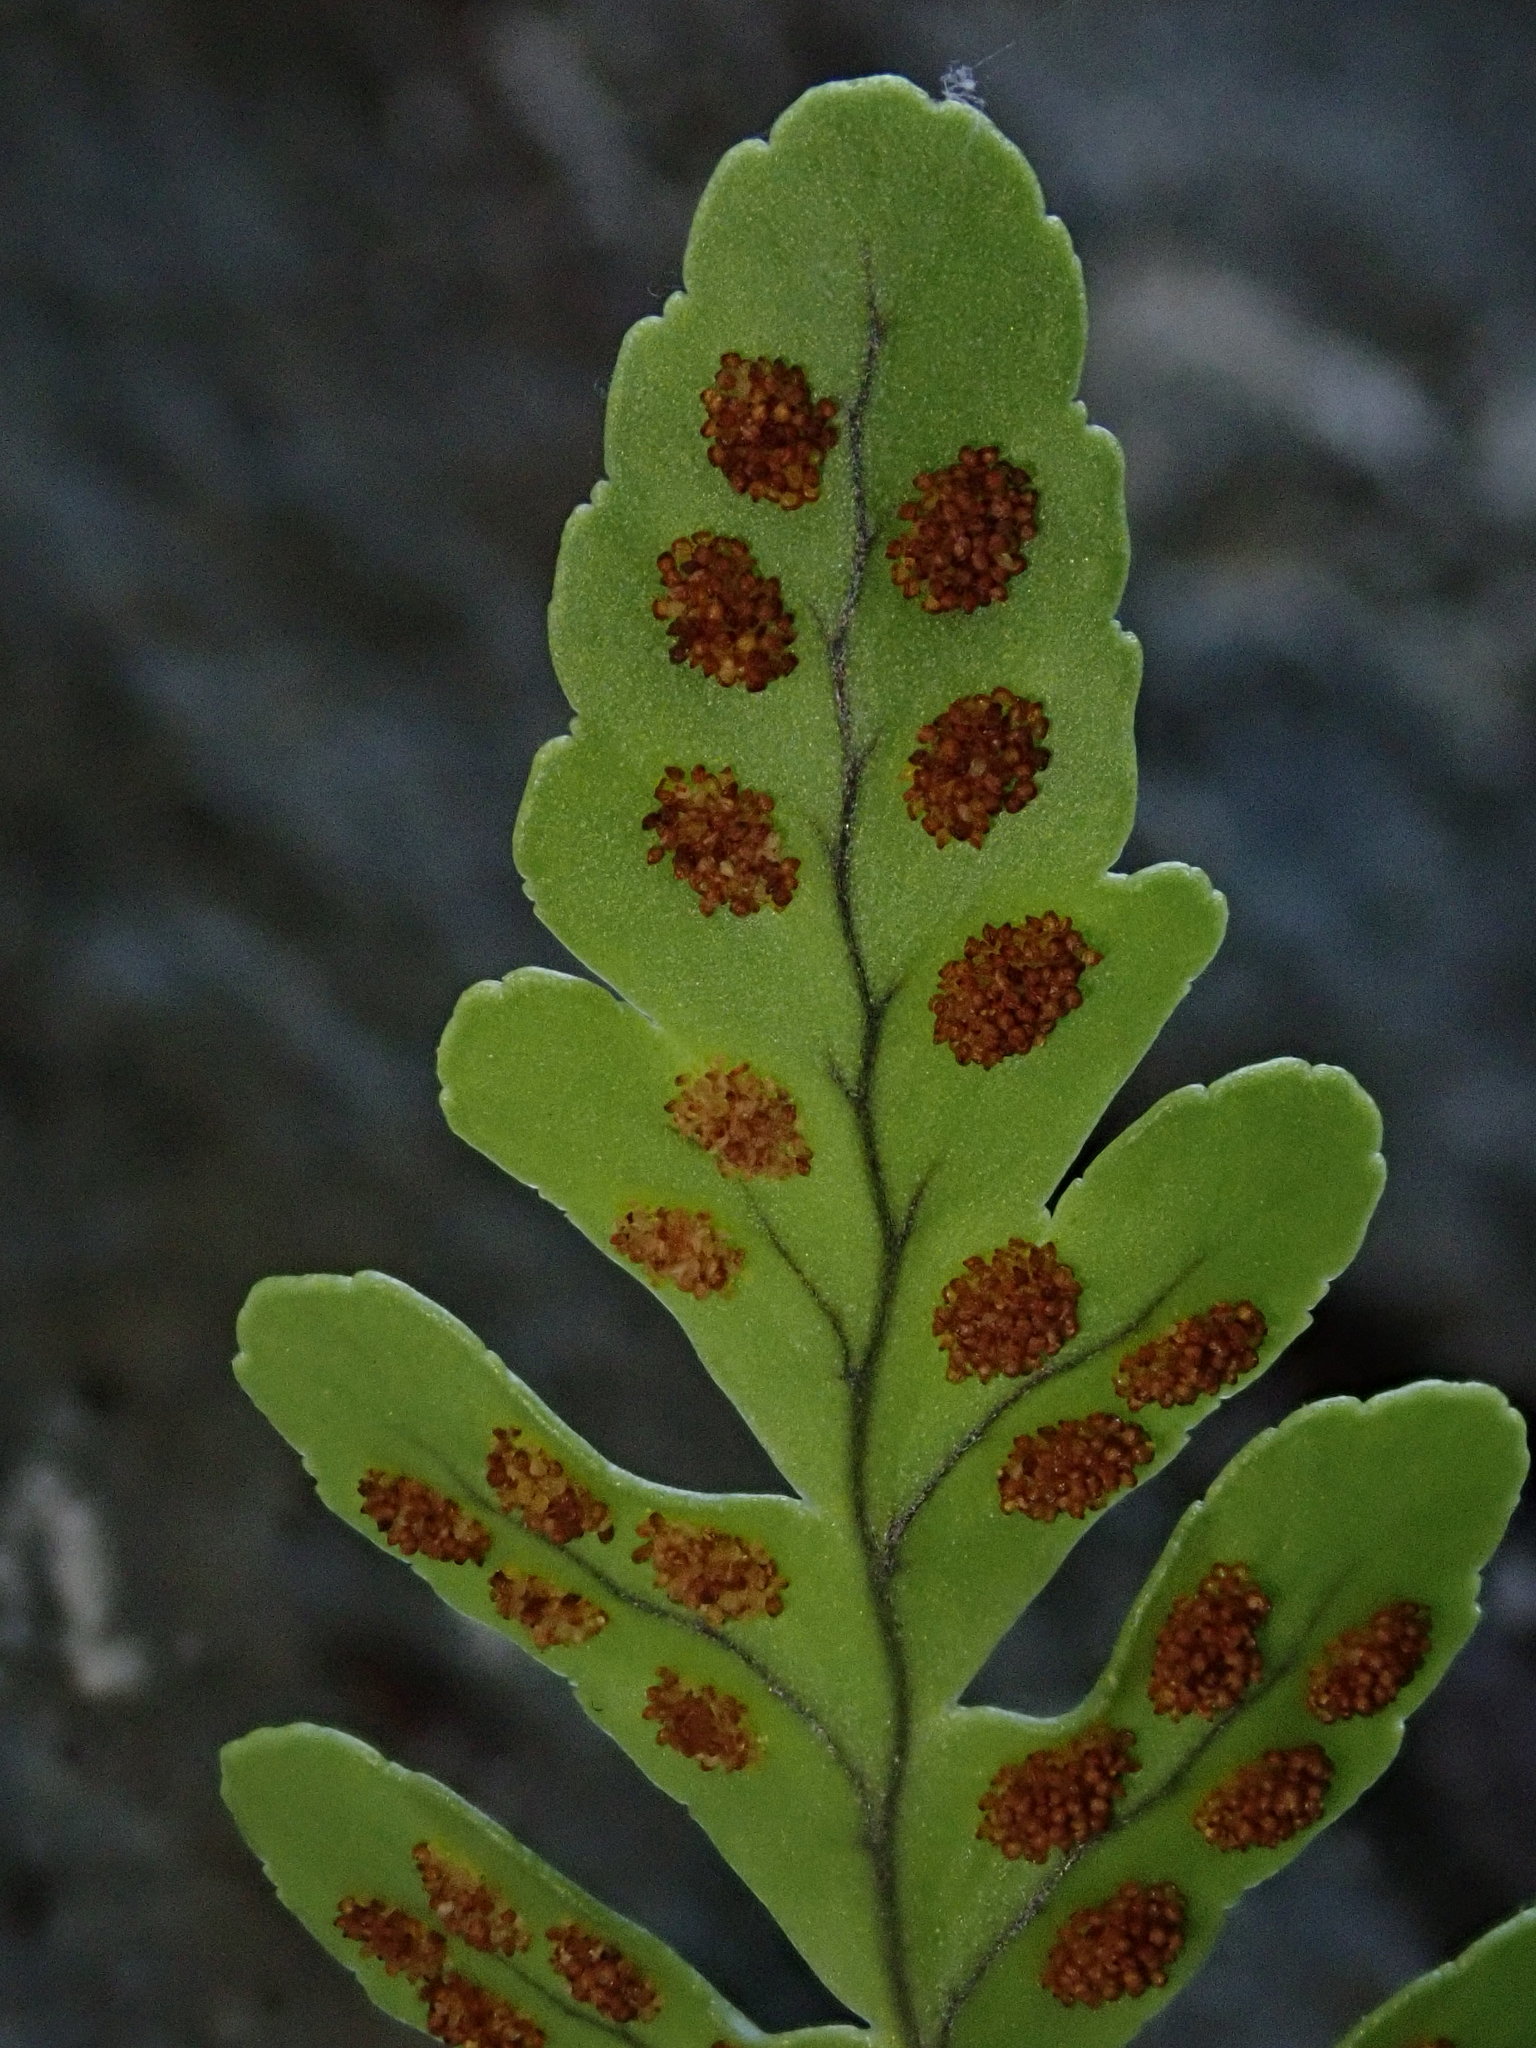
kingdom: Plantae
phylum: Tracheophyta
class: Polypodiopsida
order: Polypodiales
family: Polypodiaceae
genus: Polypodium
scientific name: Polypodium amorphum
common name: Pacific polypody
